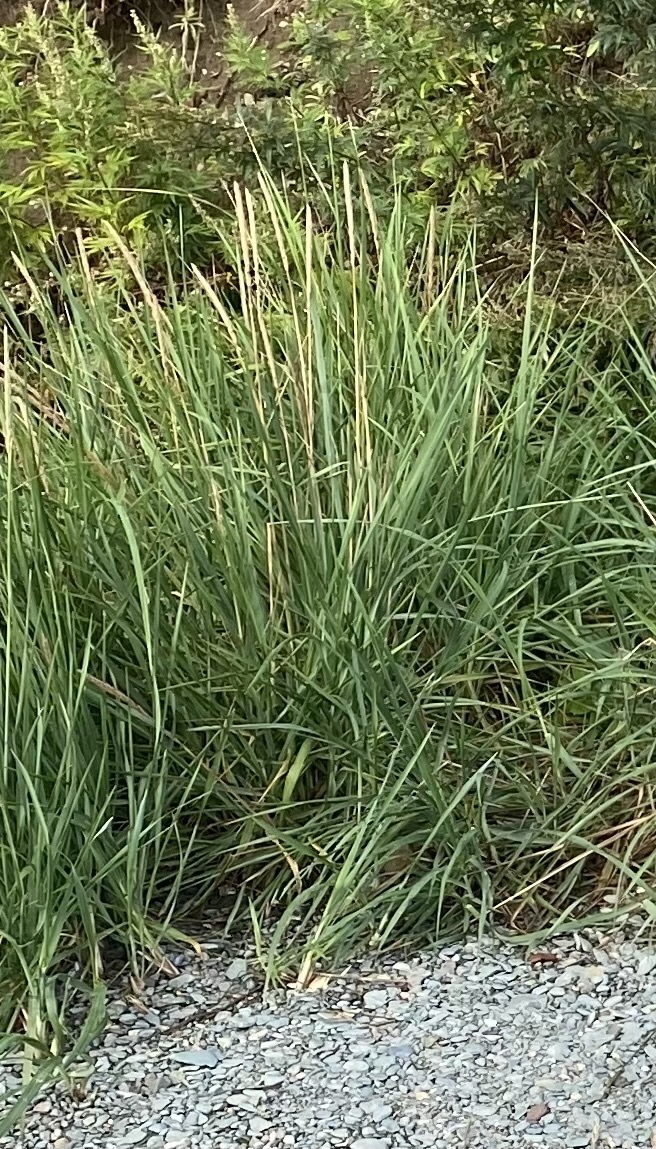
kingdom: Plantae
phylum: Tracheophyta
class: Liliopsida
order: Poales
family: Poaceae
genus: Leymus
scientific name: Leymus mollis
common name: American dune grass
